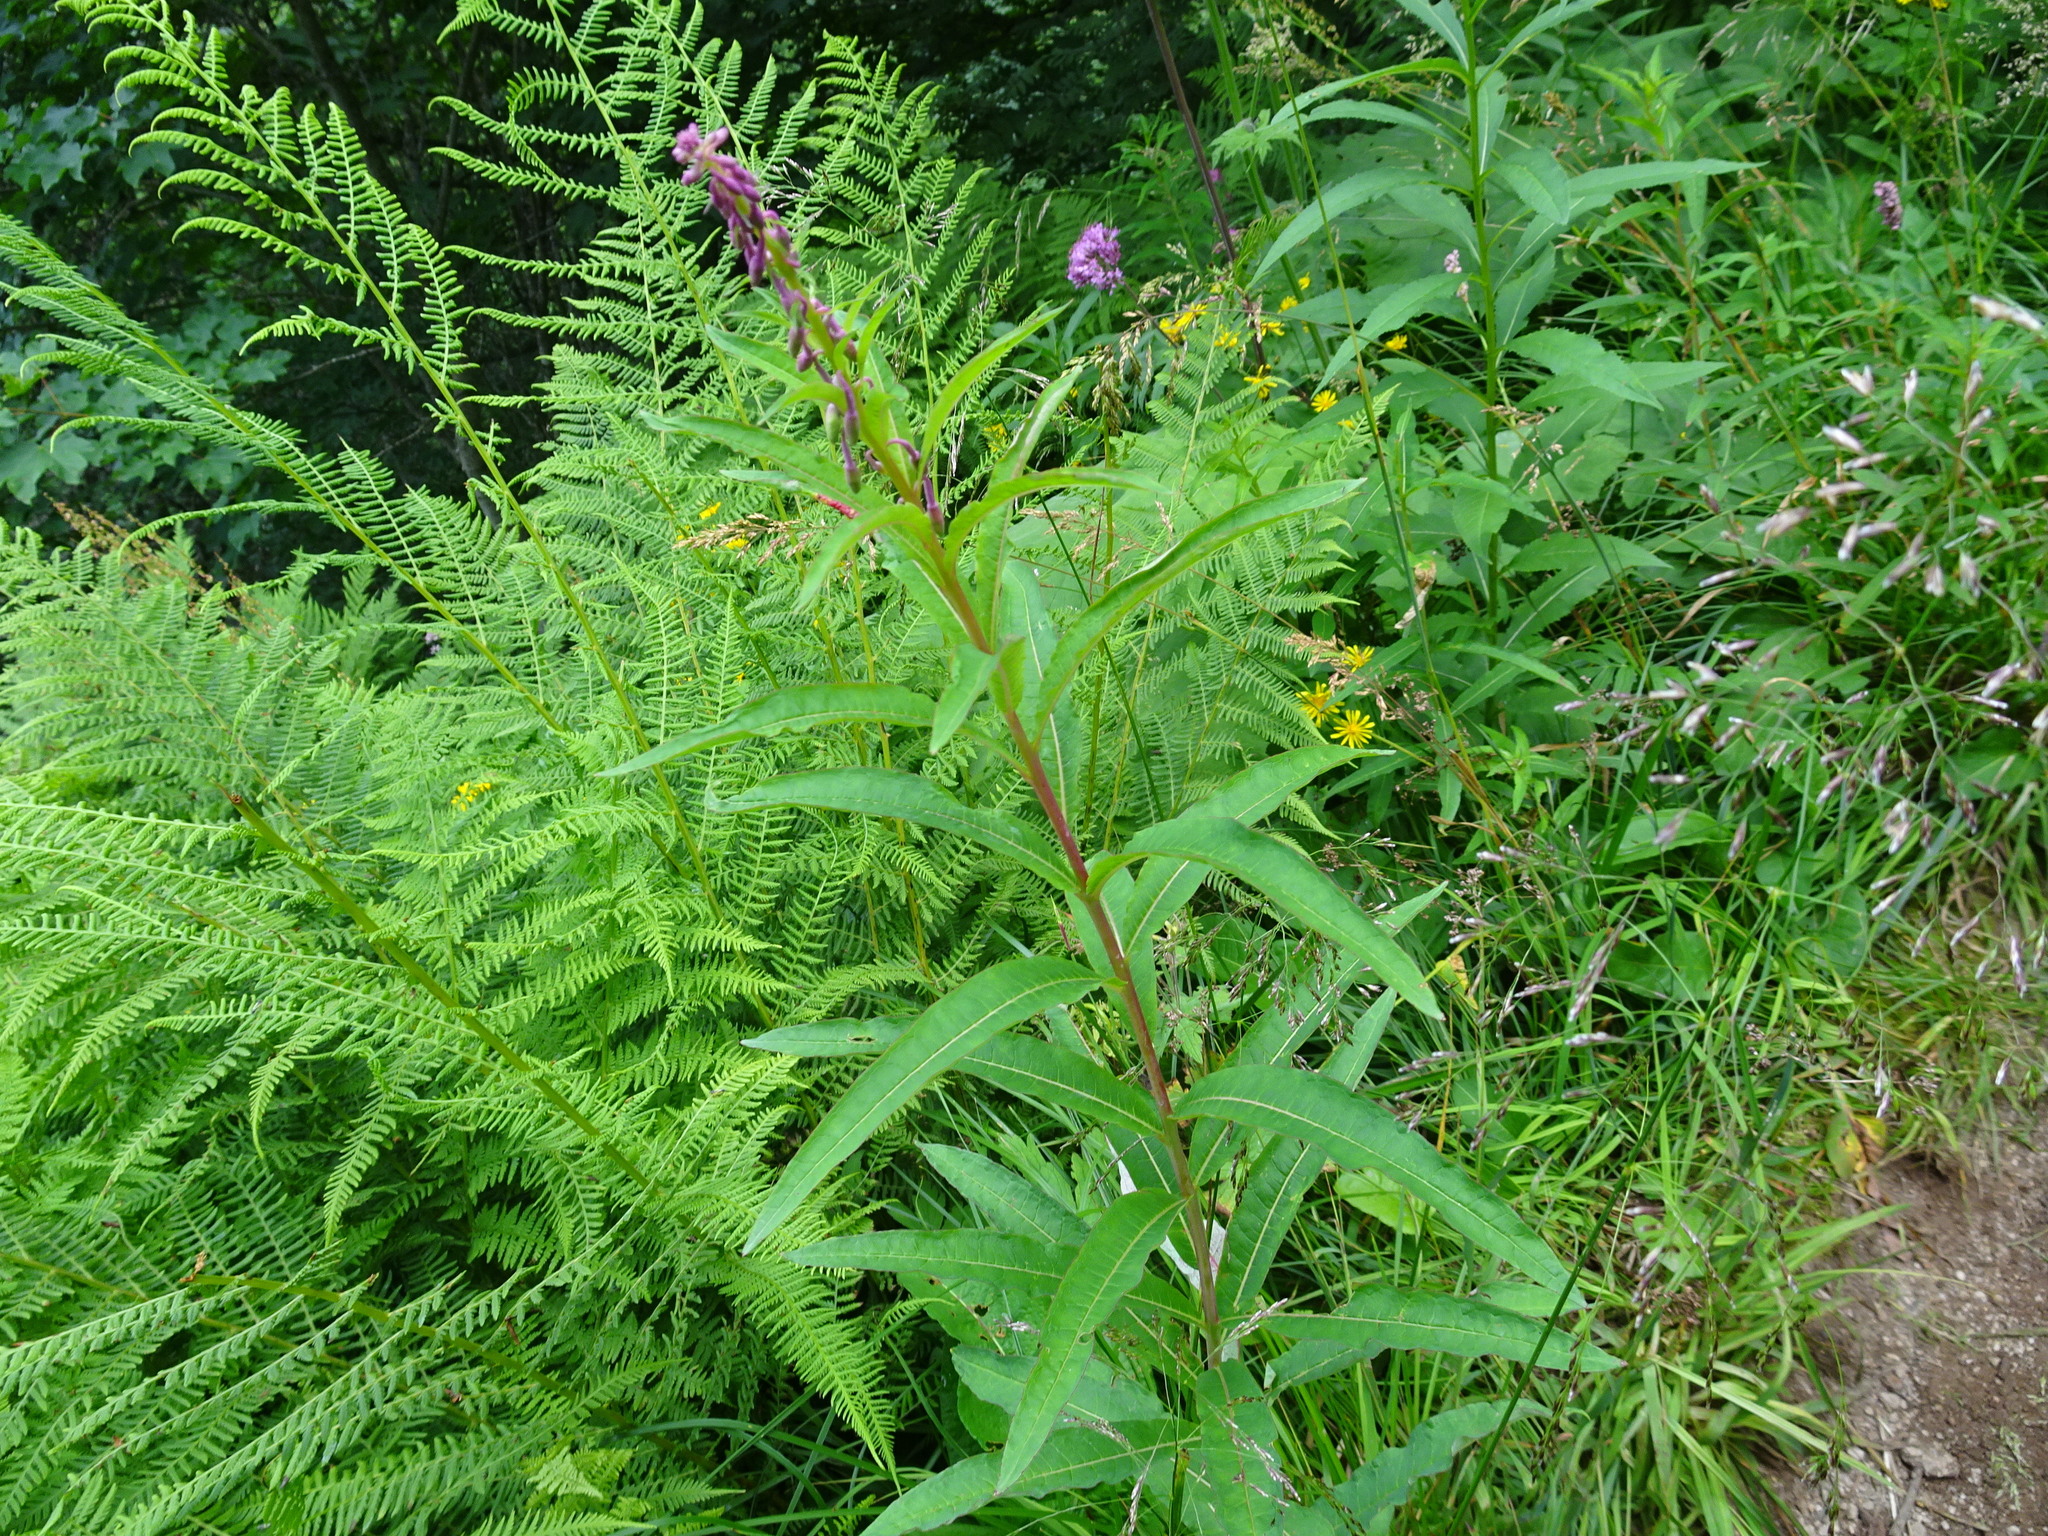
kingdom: Plantae
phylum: Tracheophyta
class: Magnoliopsida
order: Myrtales
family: Onagraceae
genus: Chamaenerion
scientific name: Chamaenerion angustifolium
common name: Fireweed
